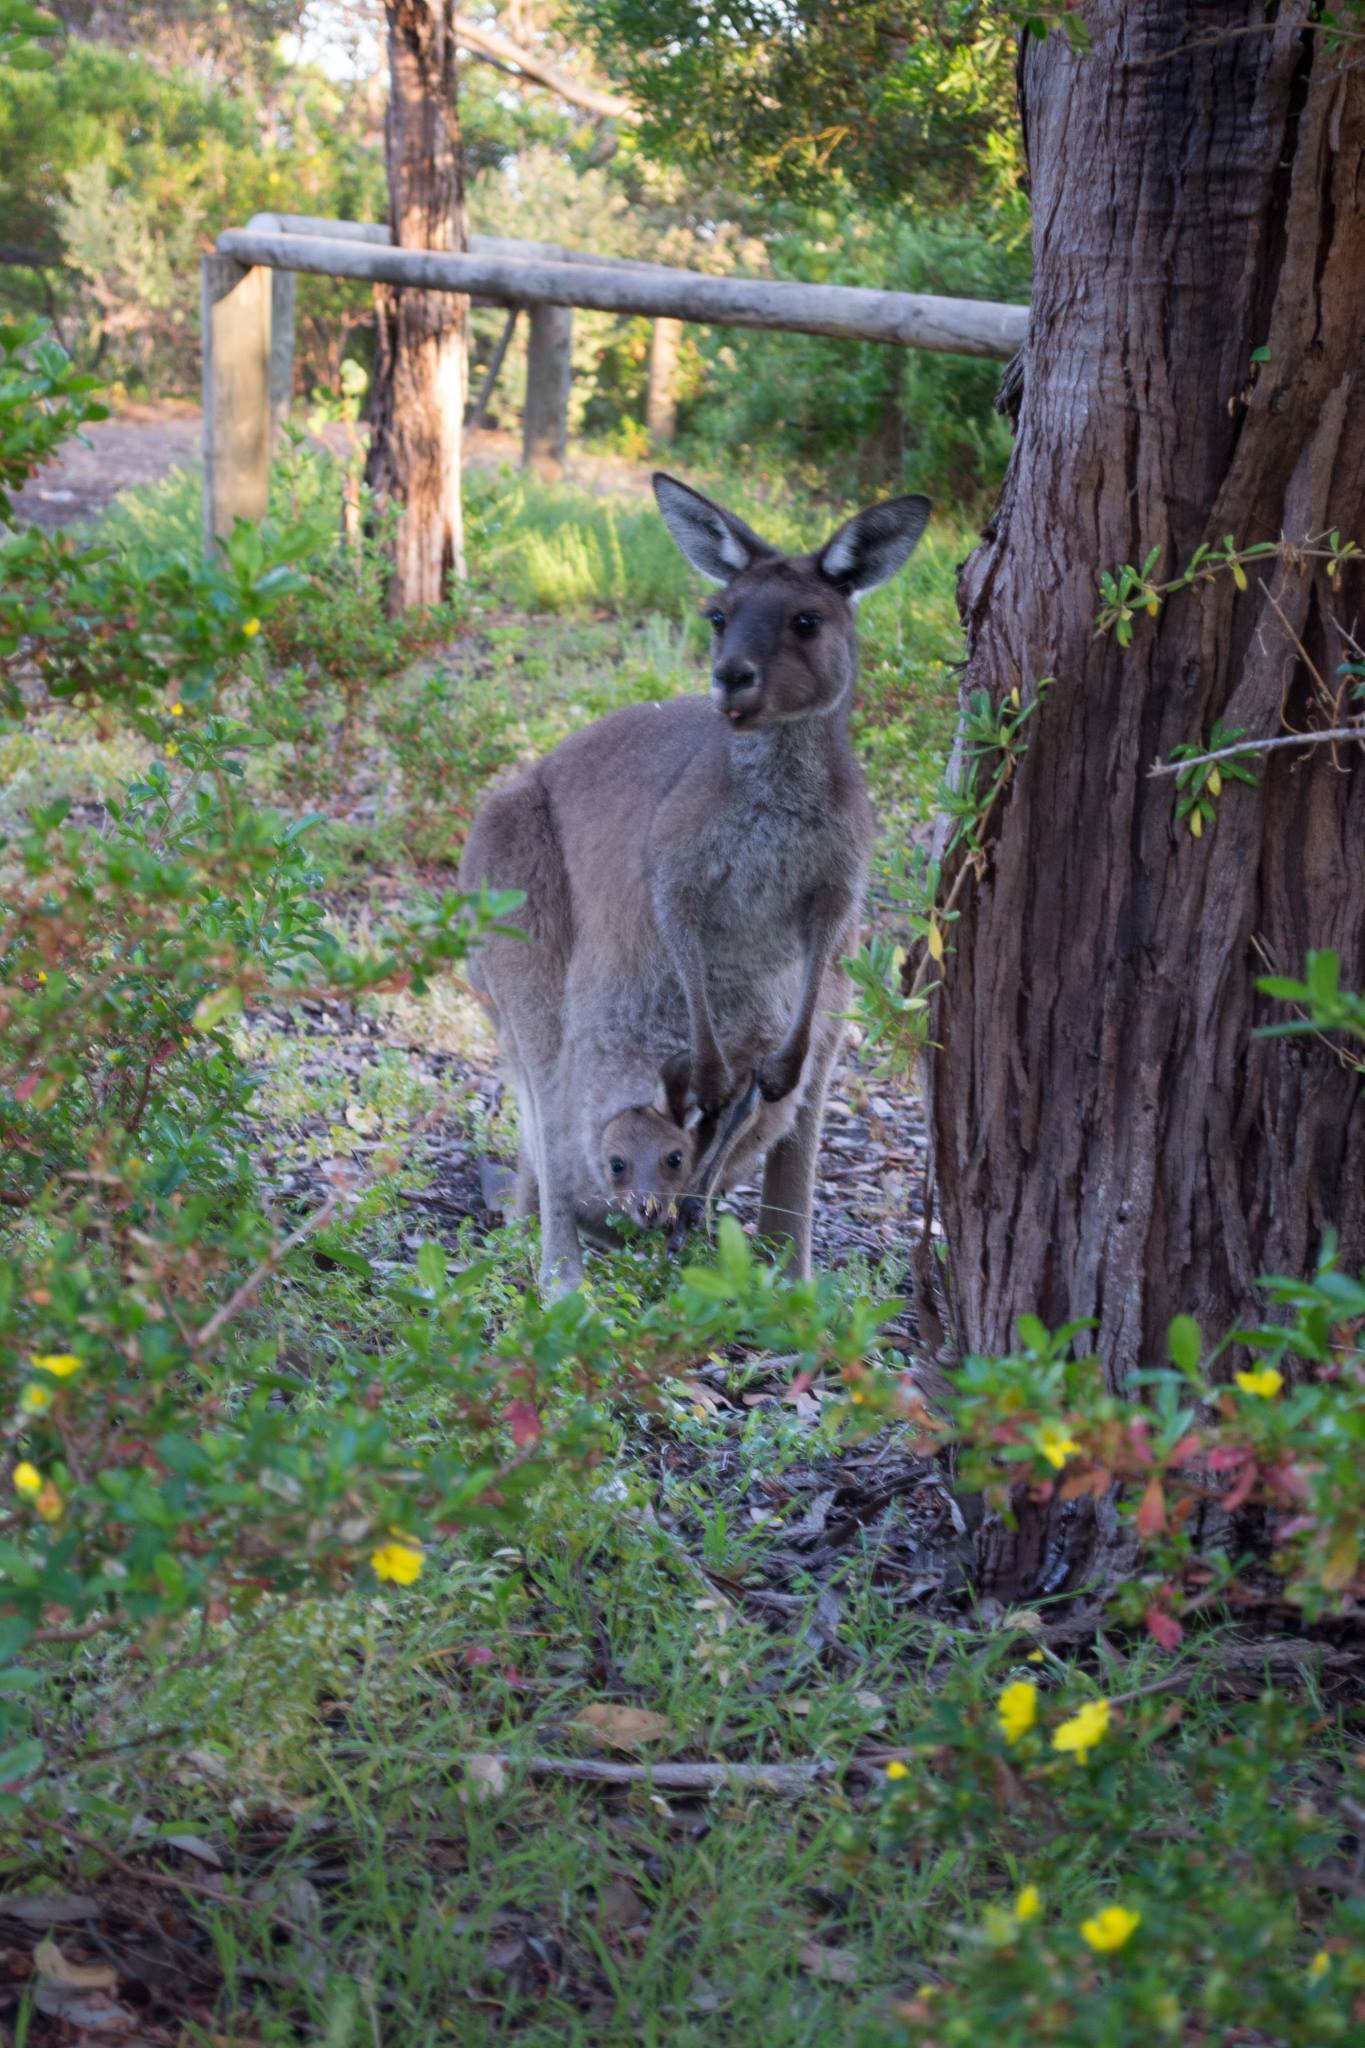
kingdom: Animalia
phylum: Chordata
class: Mammalia
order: Diprotodontia
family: Macropodidae
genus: Macropus
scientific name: Macropus fuliginosus
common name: Western grey kangaroo
